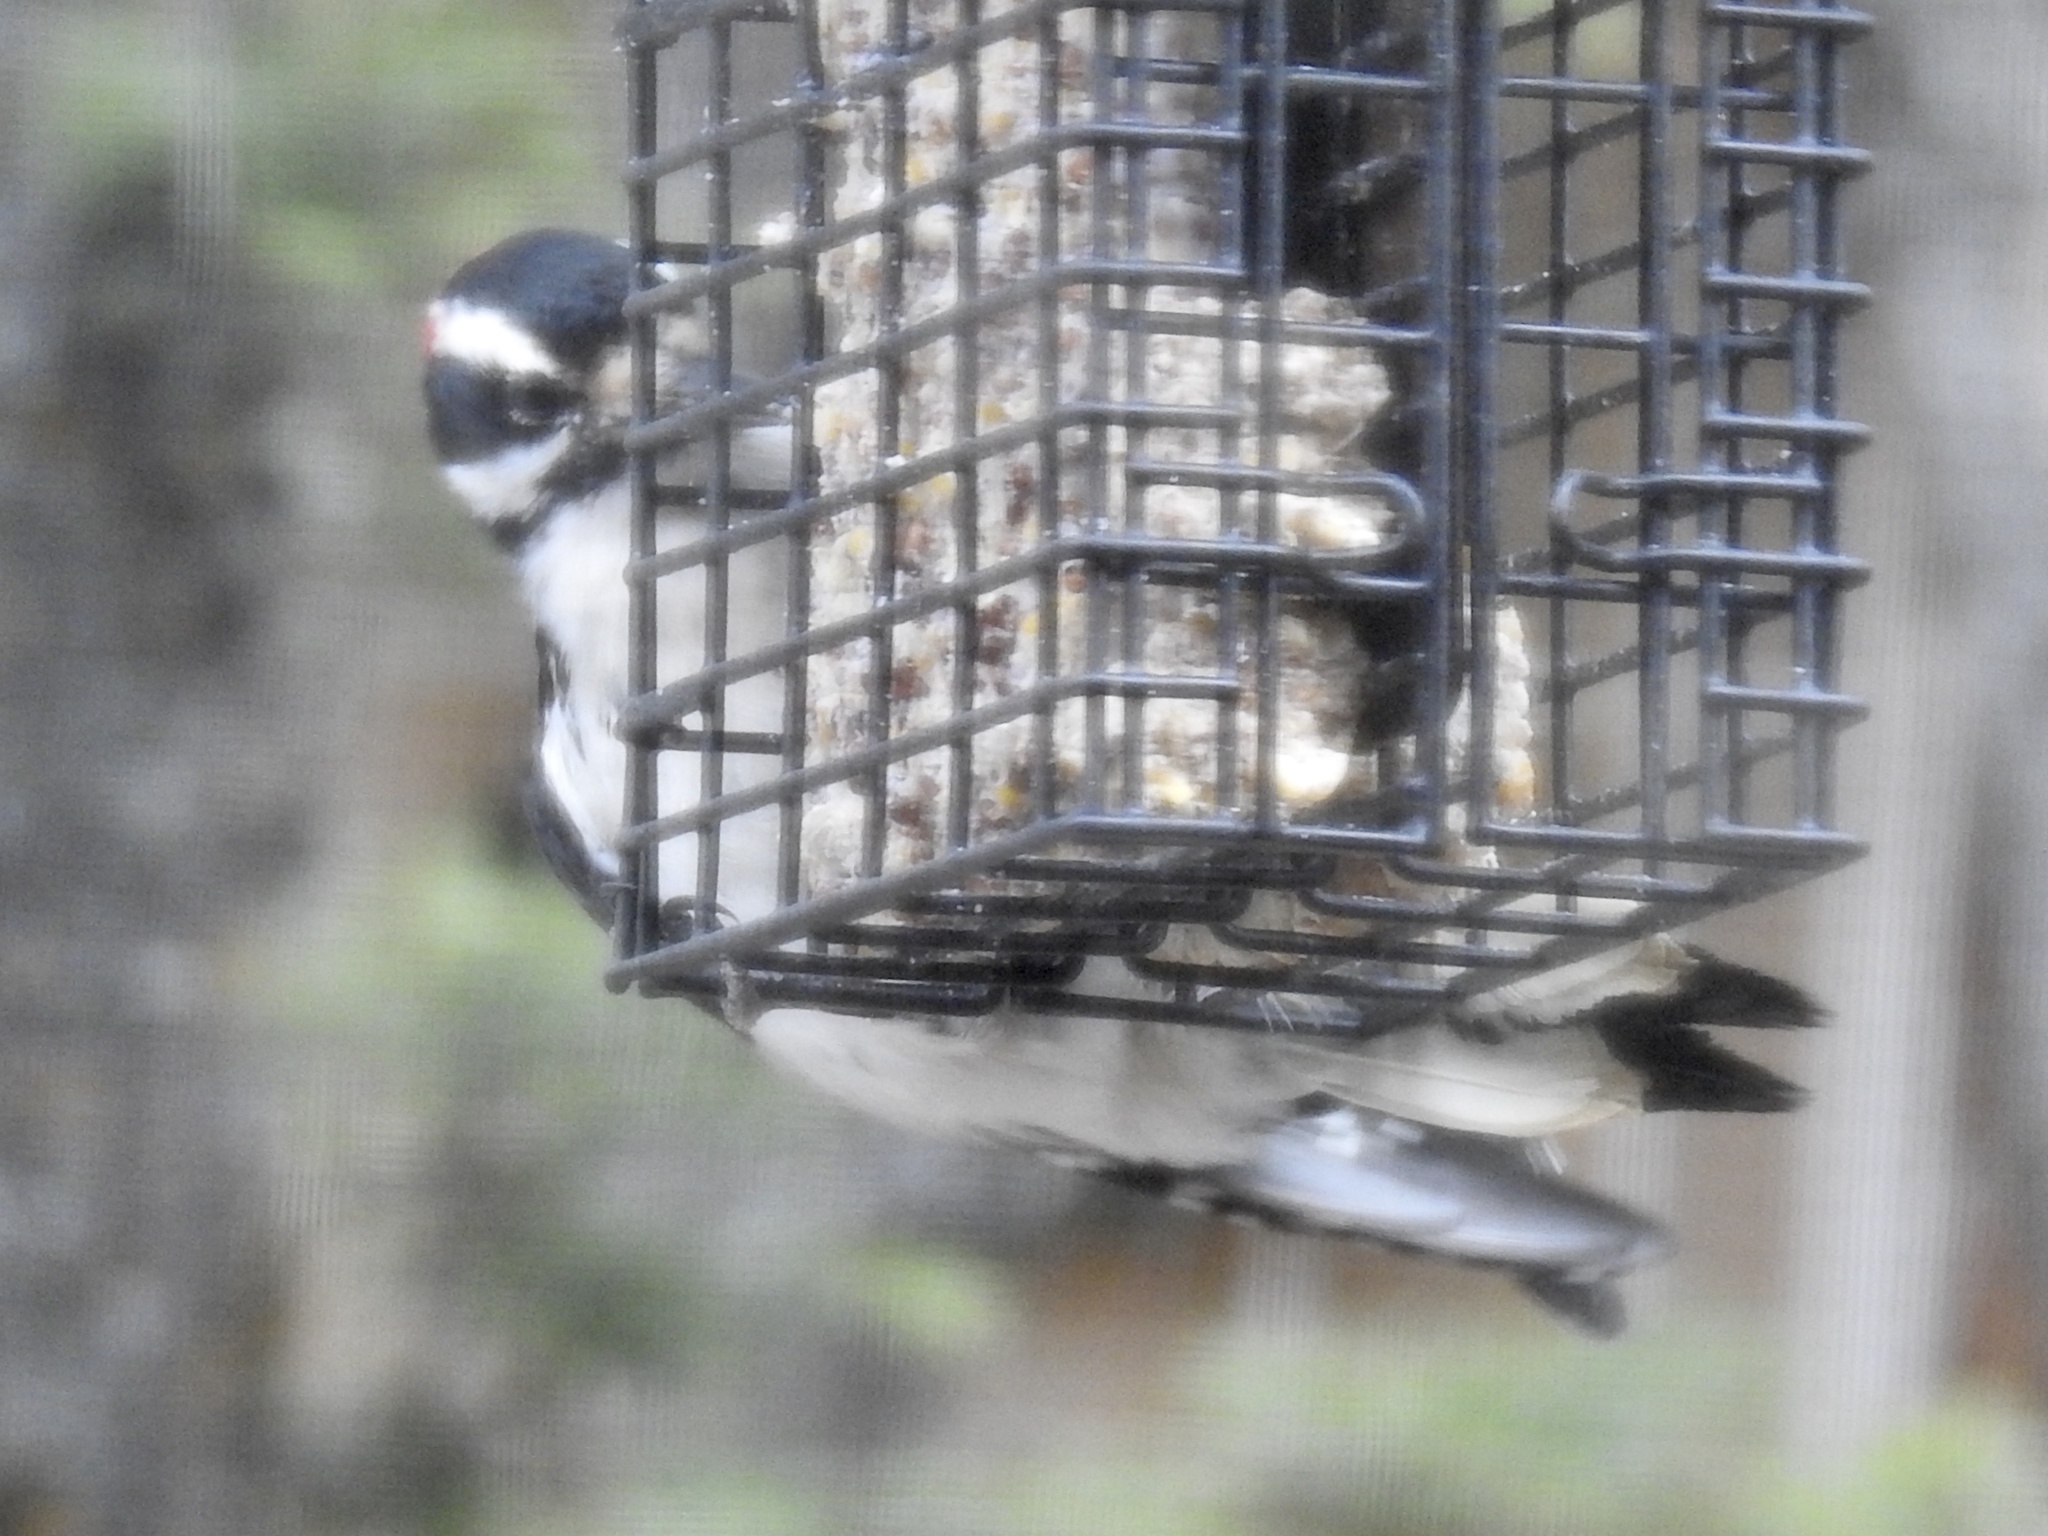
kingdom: Animalia
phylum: Chordata
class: Aves
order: Piciformes
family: Picidae
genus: Leuconotopicus
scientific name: Leuconotopicus villosus
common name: Hairy woodpecker
